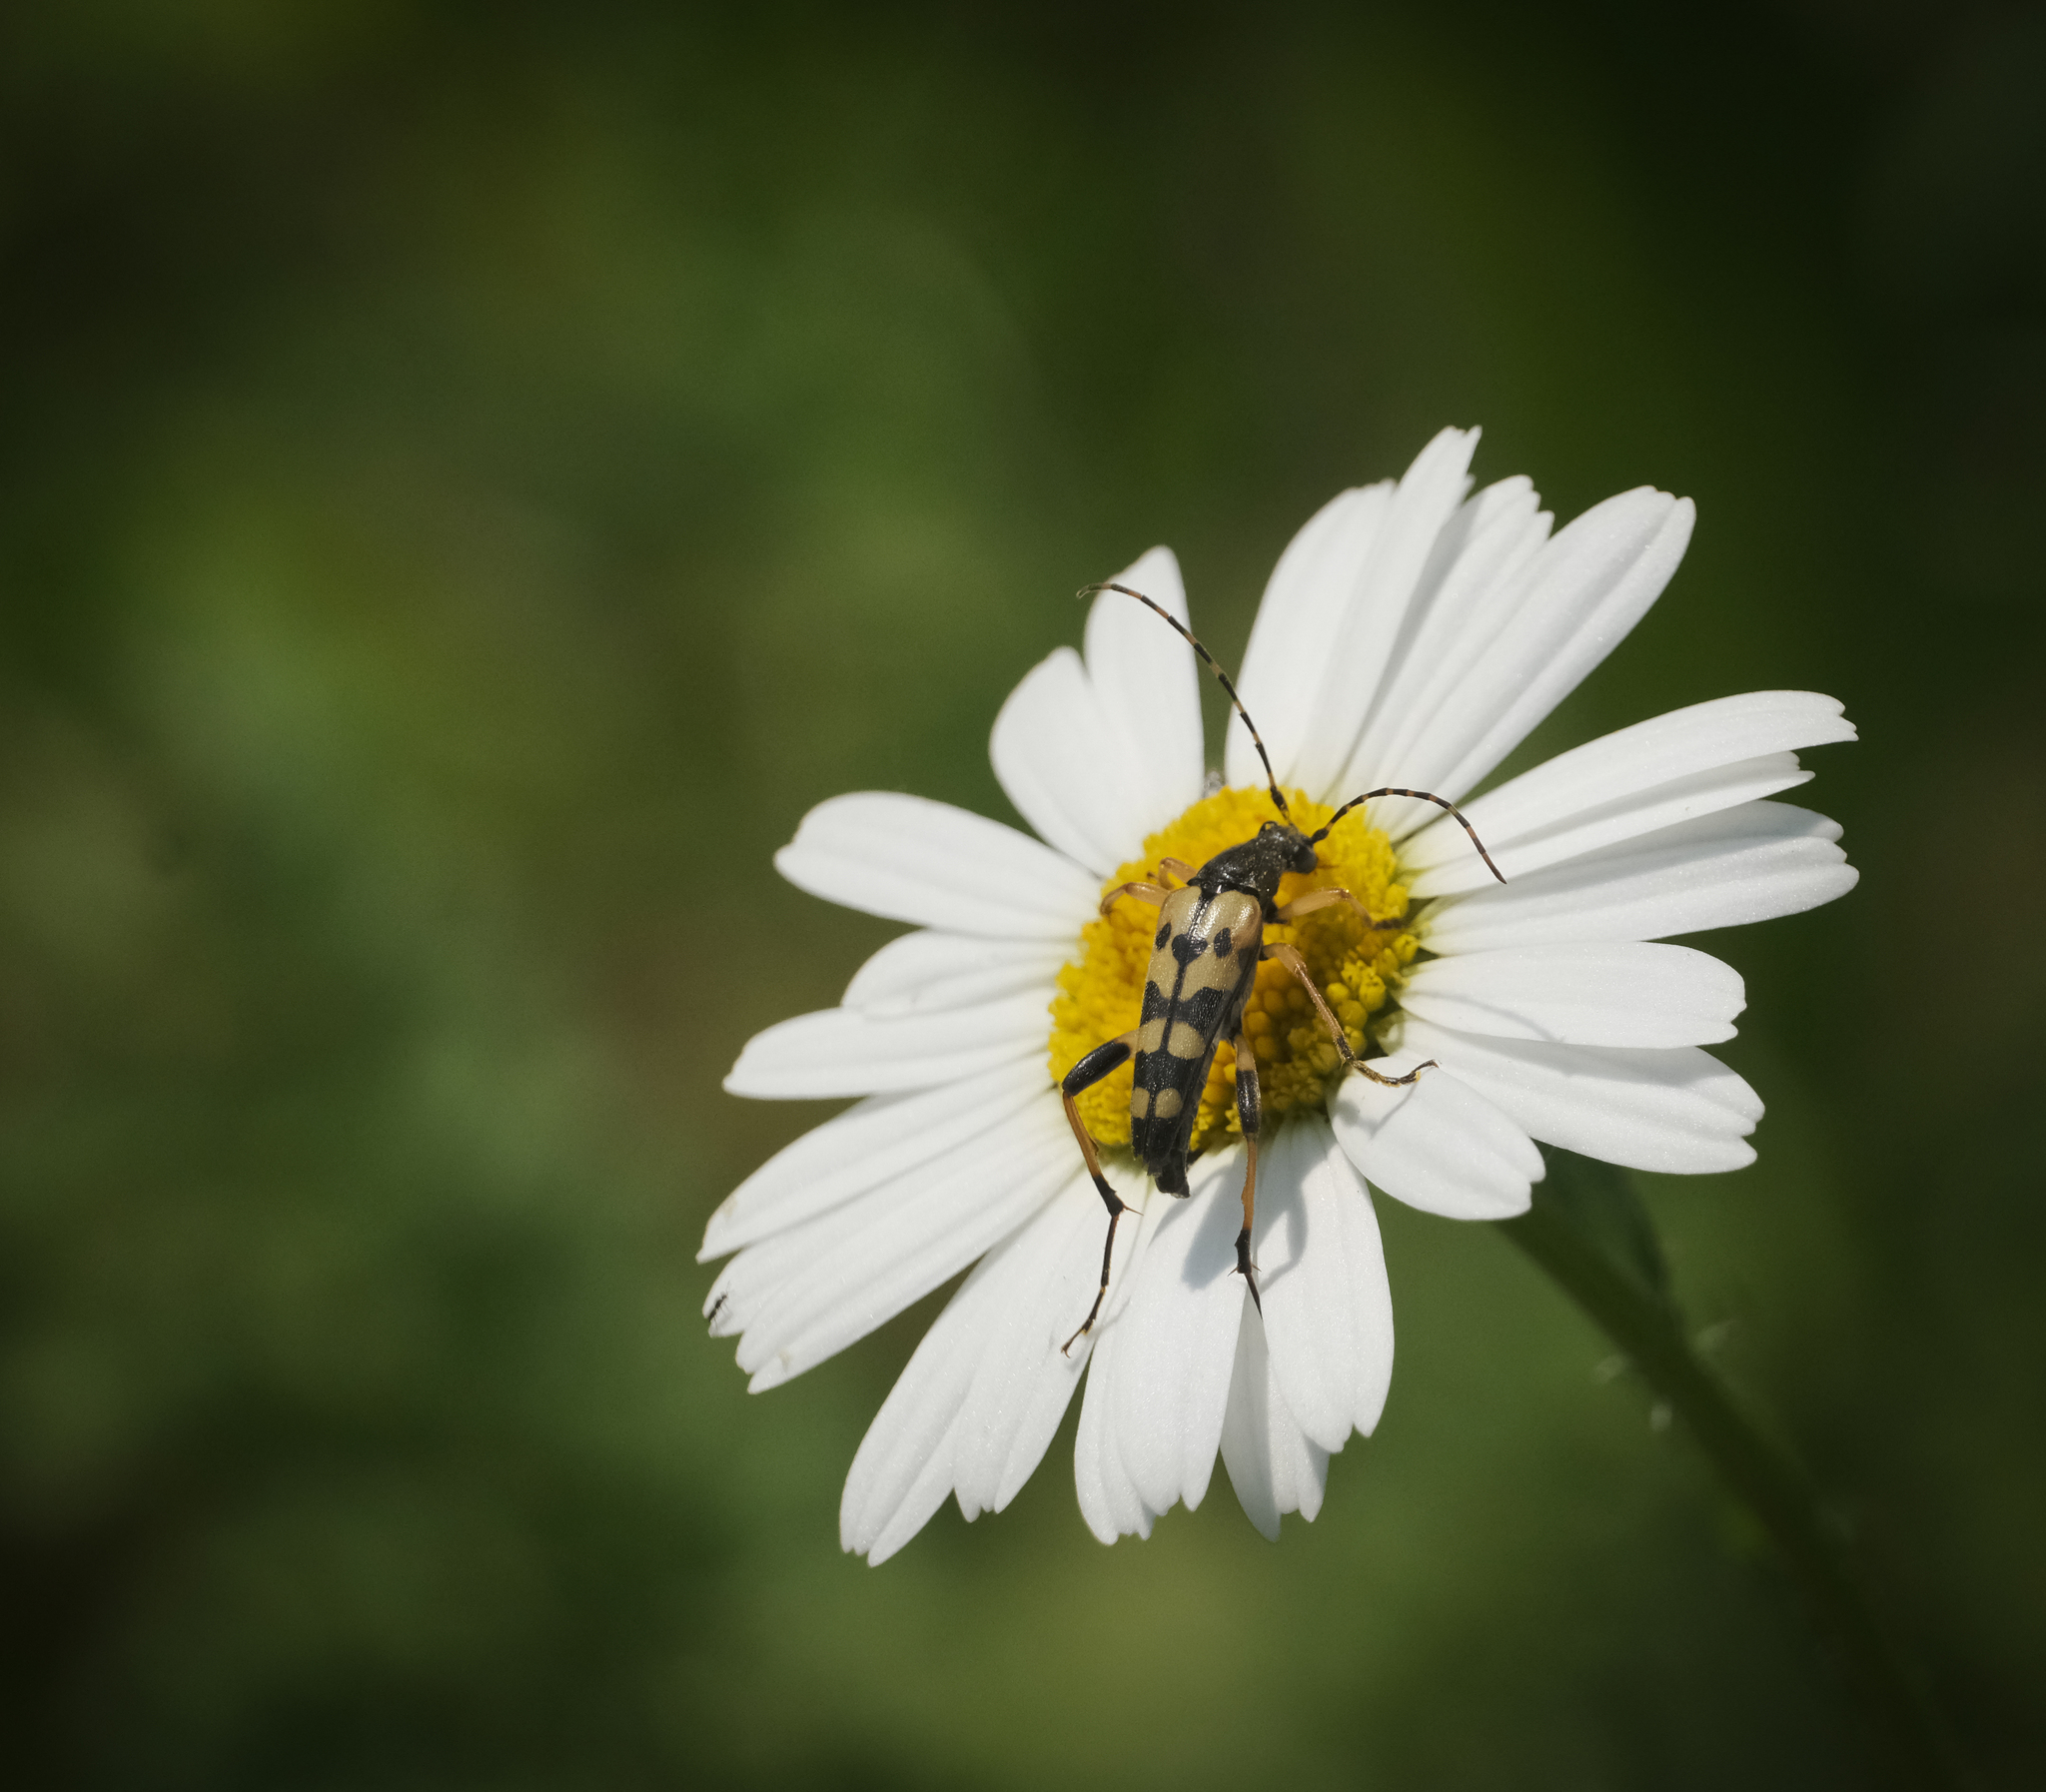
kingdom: Animalia
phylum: Arthropoda
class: Insecta
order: Coleoptera
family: Cerambycidae
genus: Rutpela
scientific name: Rutpela maculata
